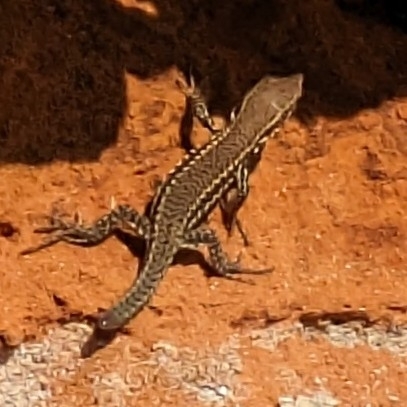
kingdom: Animalia
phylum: Chordata
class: Squamata
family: Lacertidae
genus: Podarcis
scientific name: Podarcis muralis
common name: Common wall lizard
